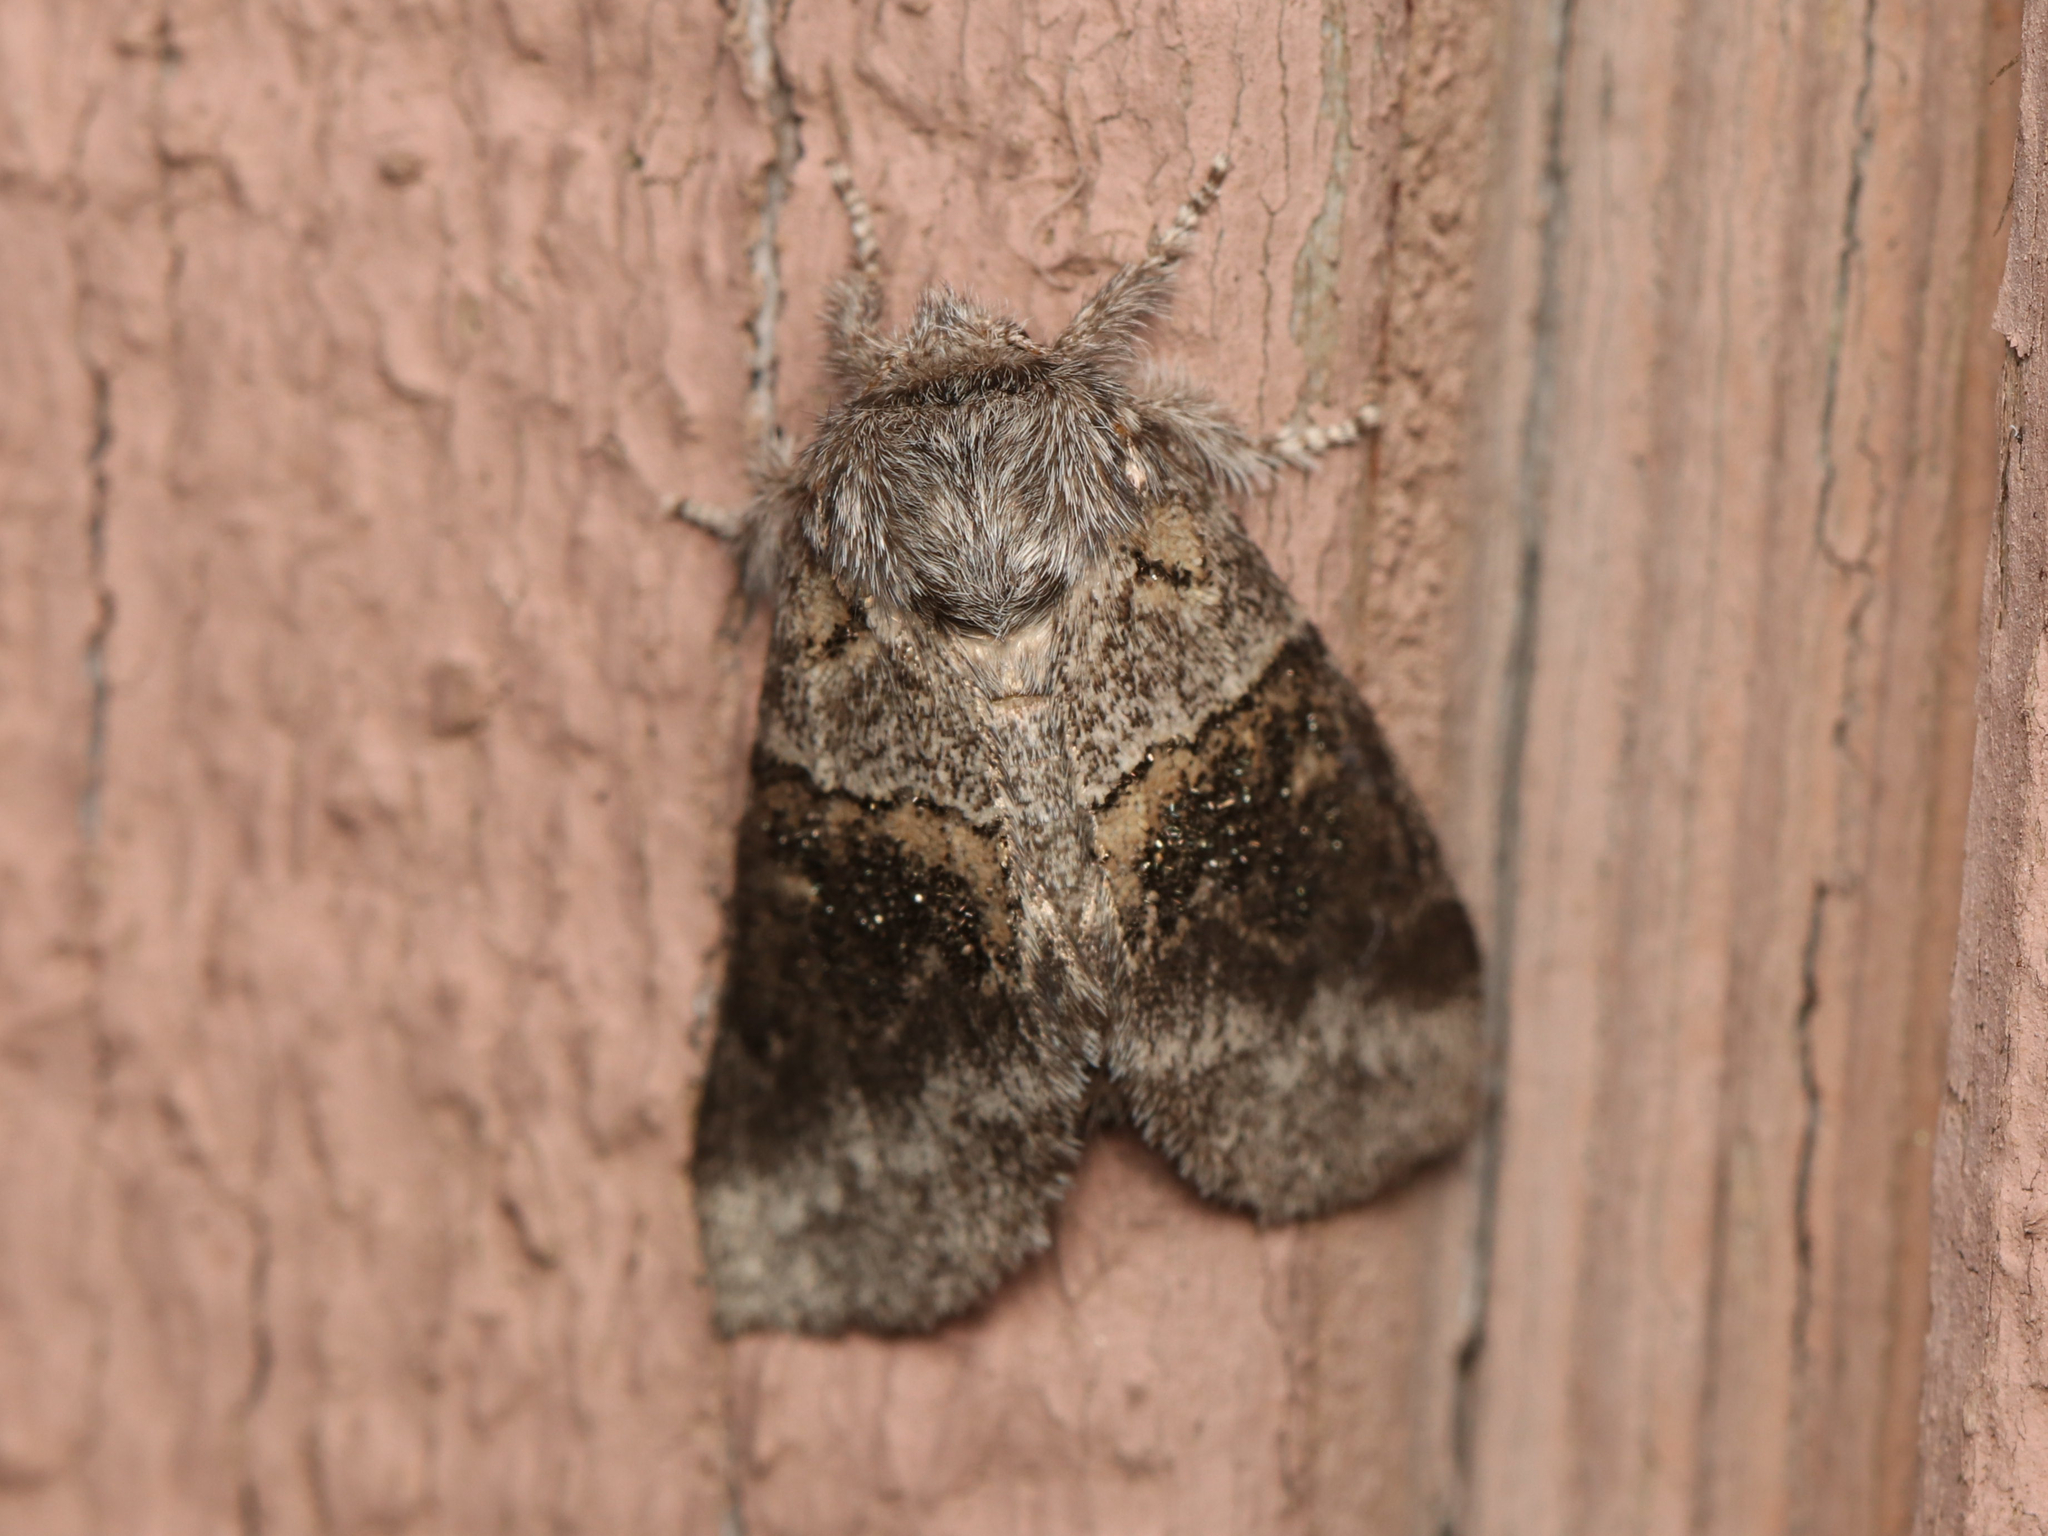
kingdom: Animalia
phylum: Arthropoda
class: Insecta
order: Lepidoptera
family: Notodontidae
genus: Gluphisia
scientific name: Gluphisia septentrionis
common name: Common gluphisia
